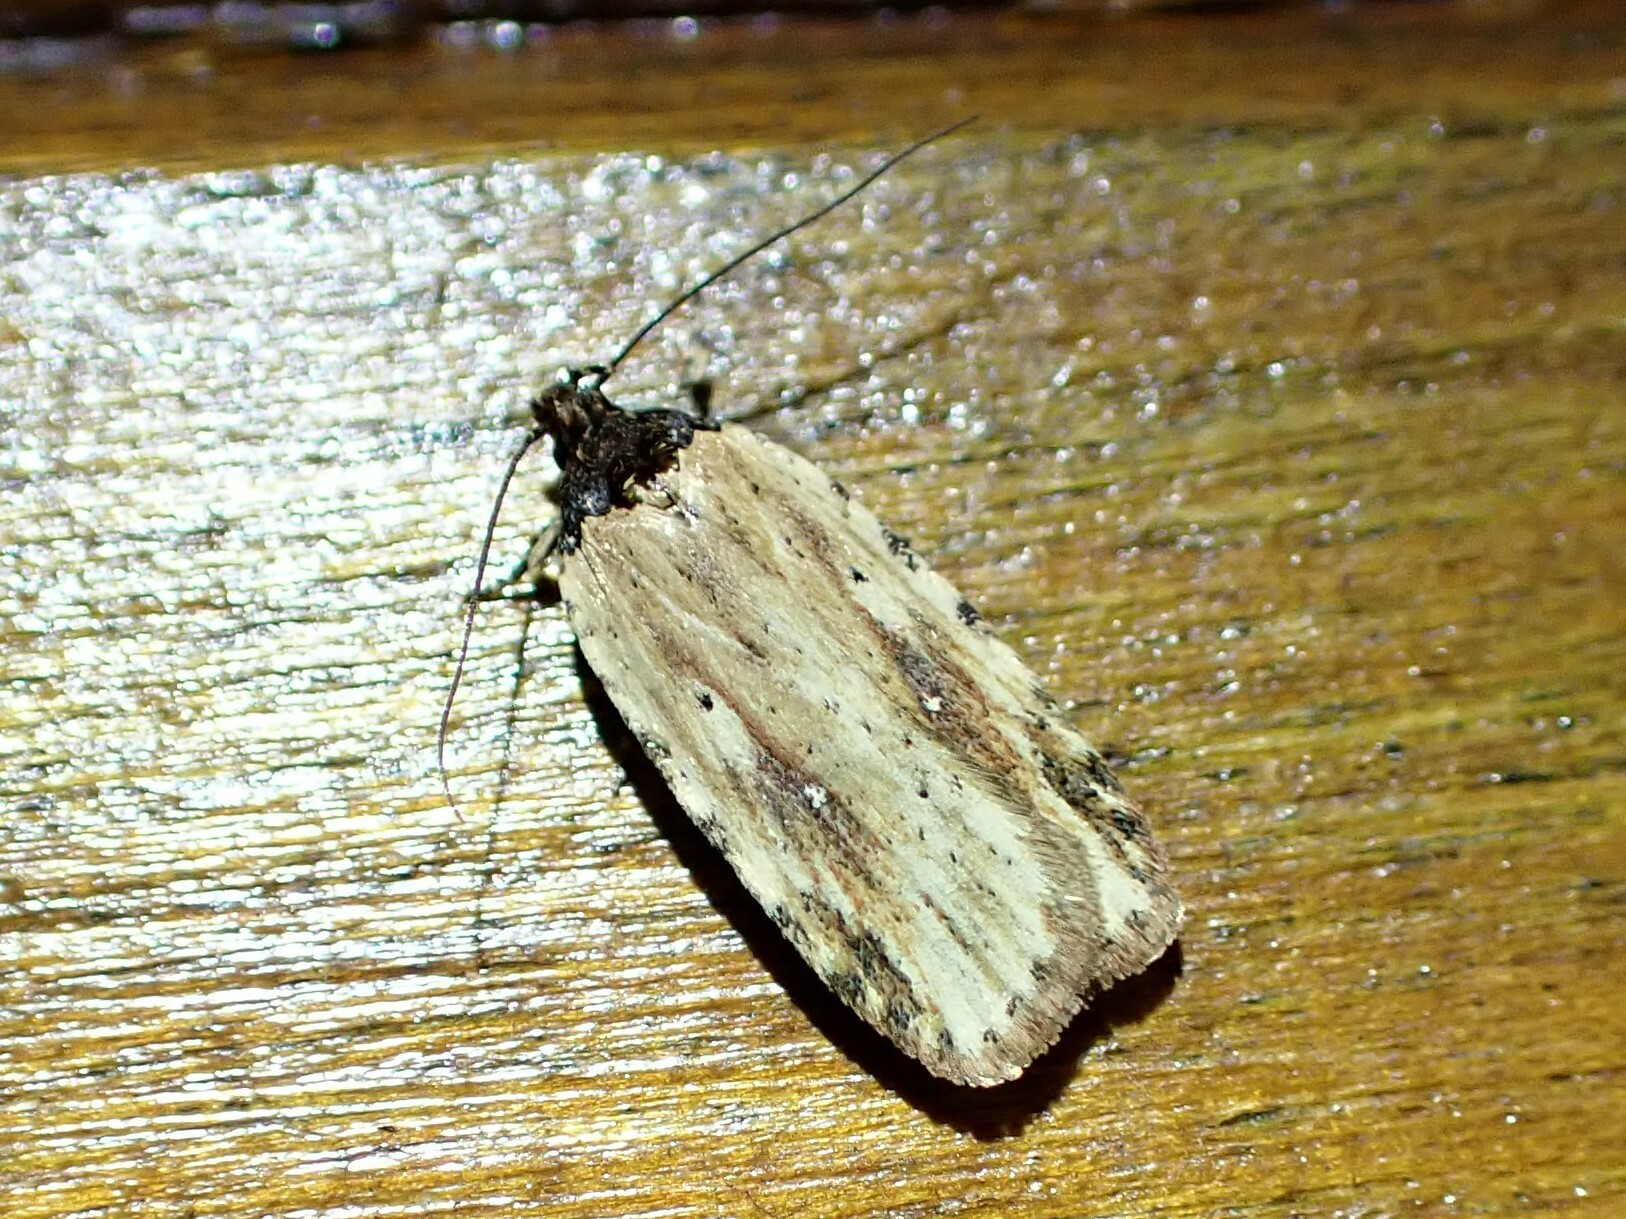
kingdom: Animalia
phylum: Arthropoda
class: Insecta
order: Lepidoptera
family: Depressariidae
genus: Agonopterix
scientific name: Agonopterix atrodorsella
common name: Beggartick leaffolder
